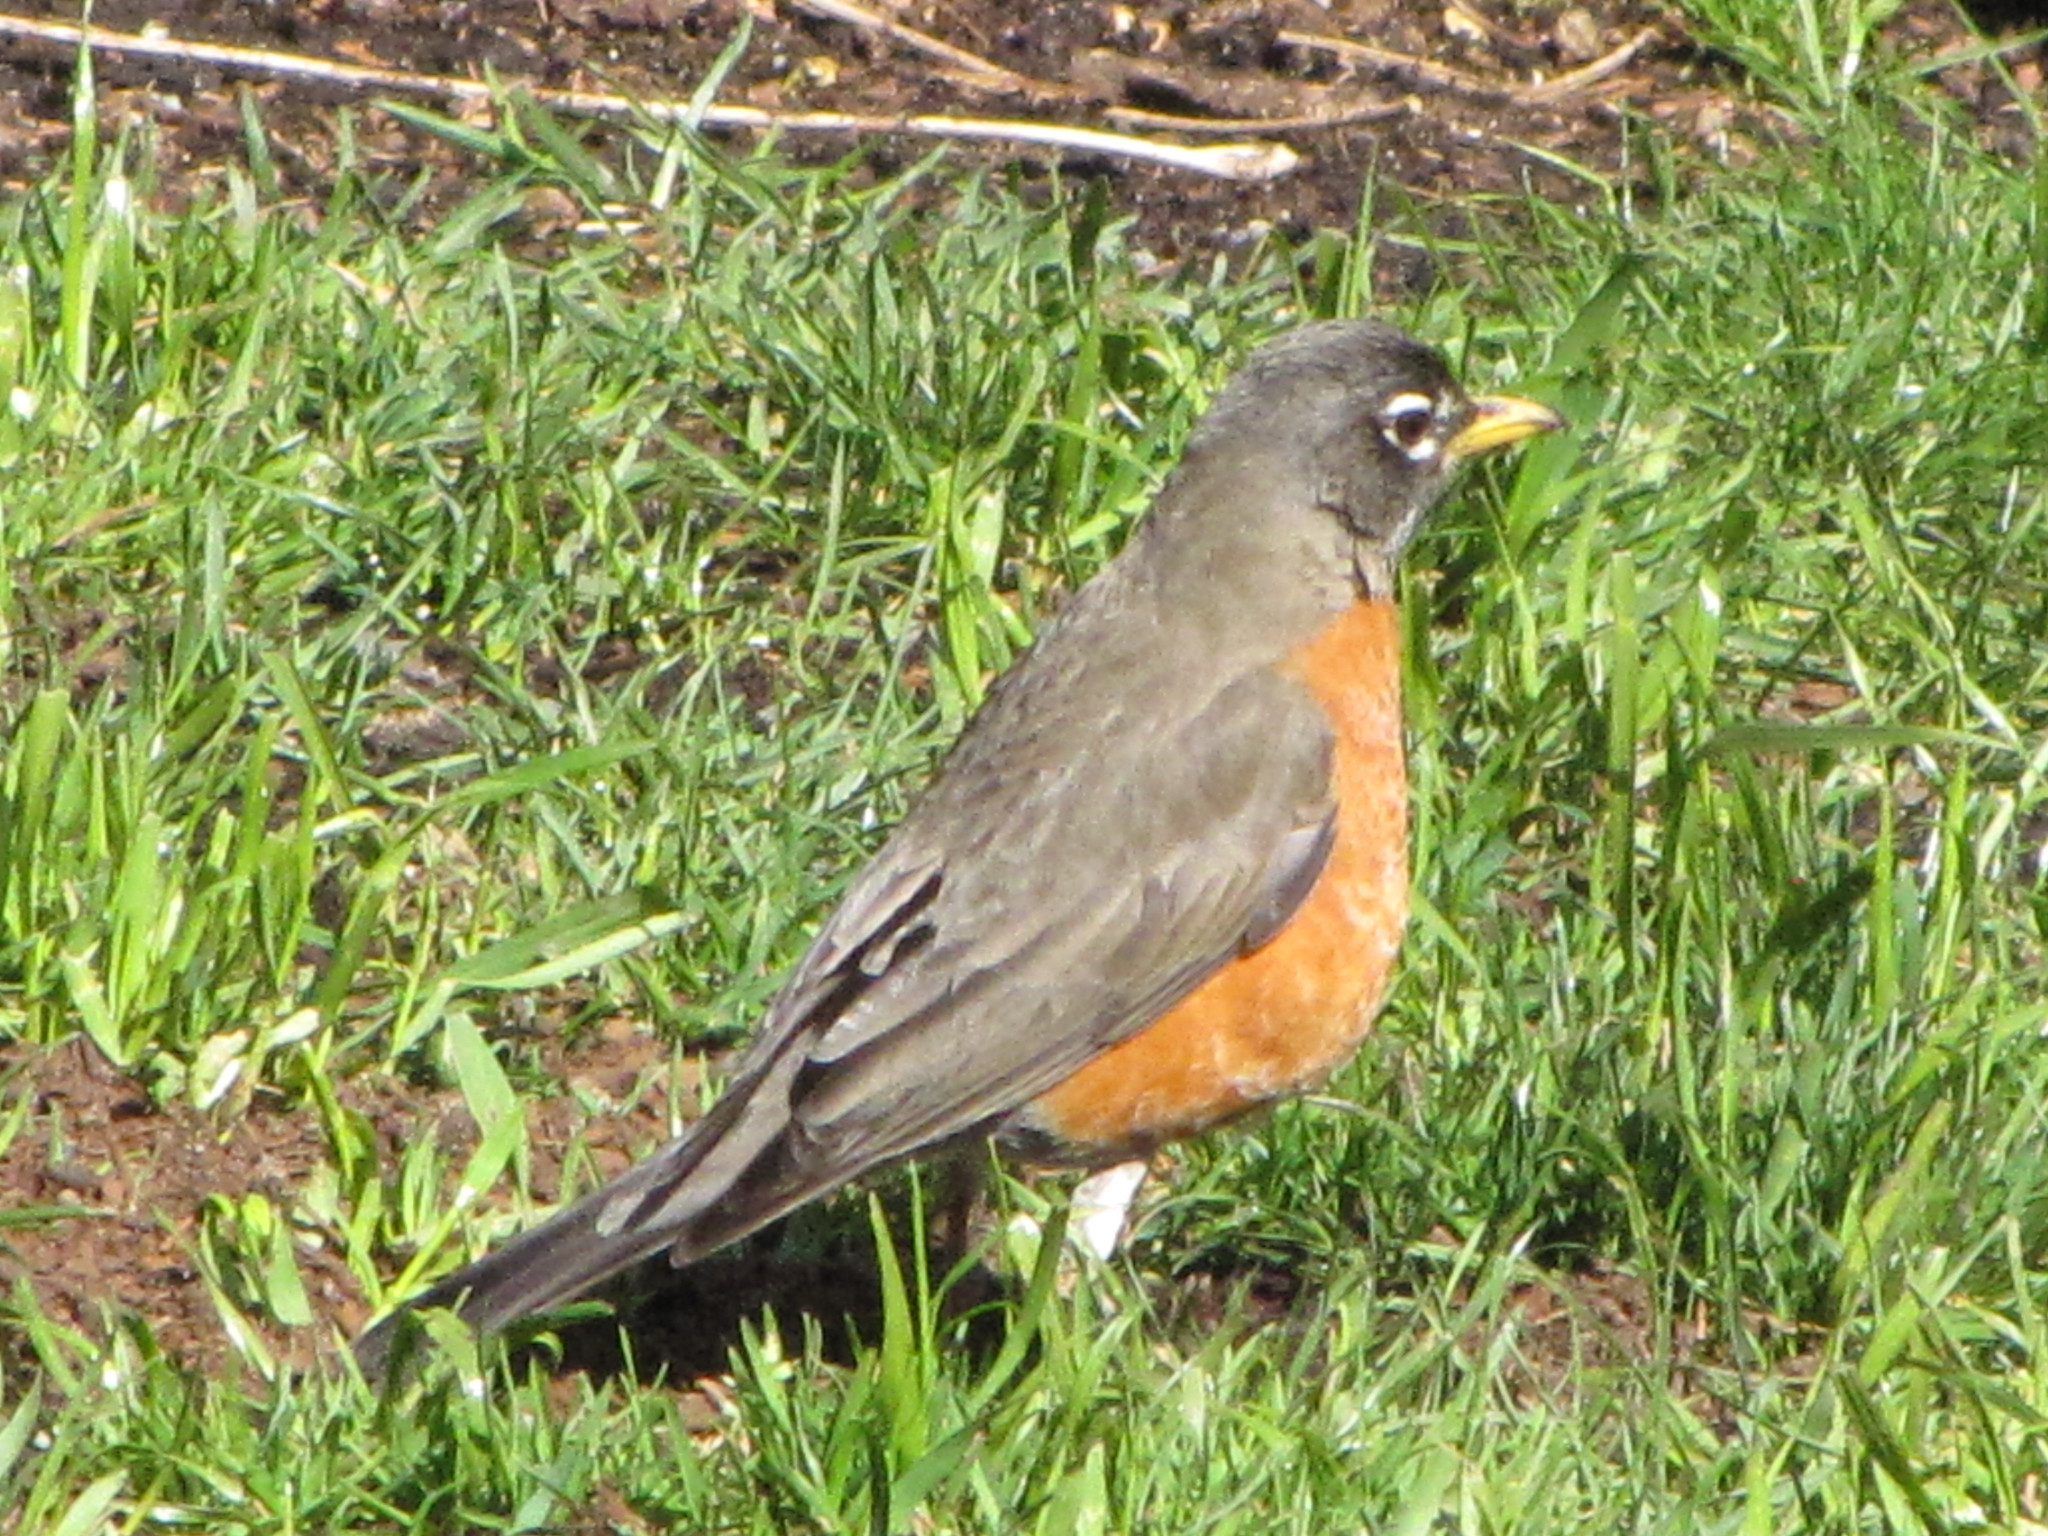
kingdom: Animalia
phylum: Chordata
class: Aves
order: Passeriformes
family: Turdidae
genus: Turdus
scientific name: Turdus migratorius
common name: American robin
